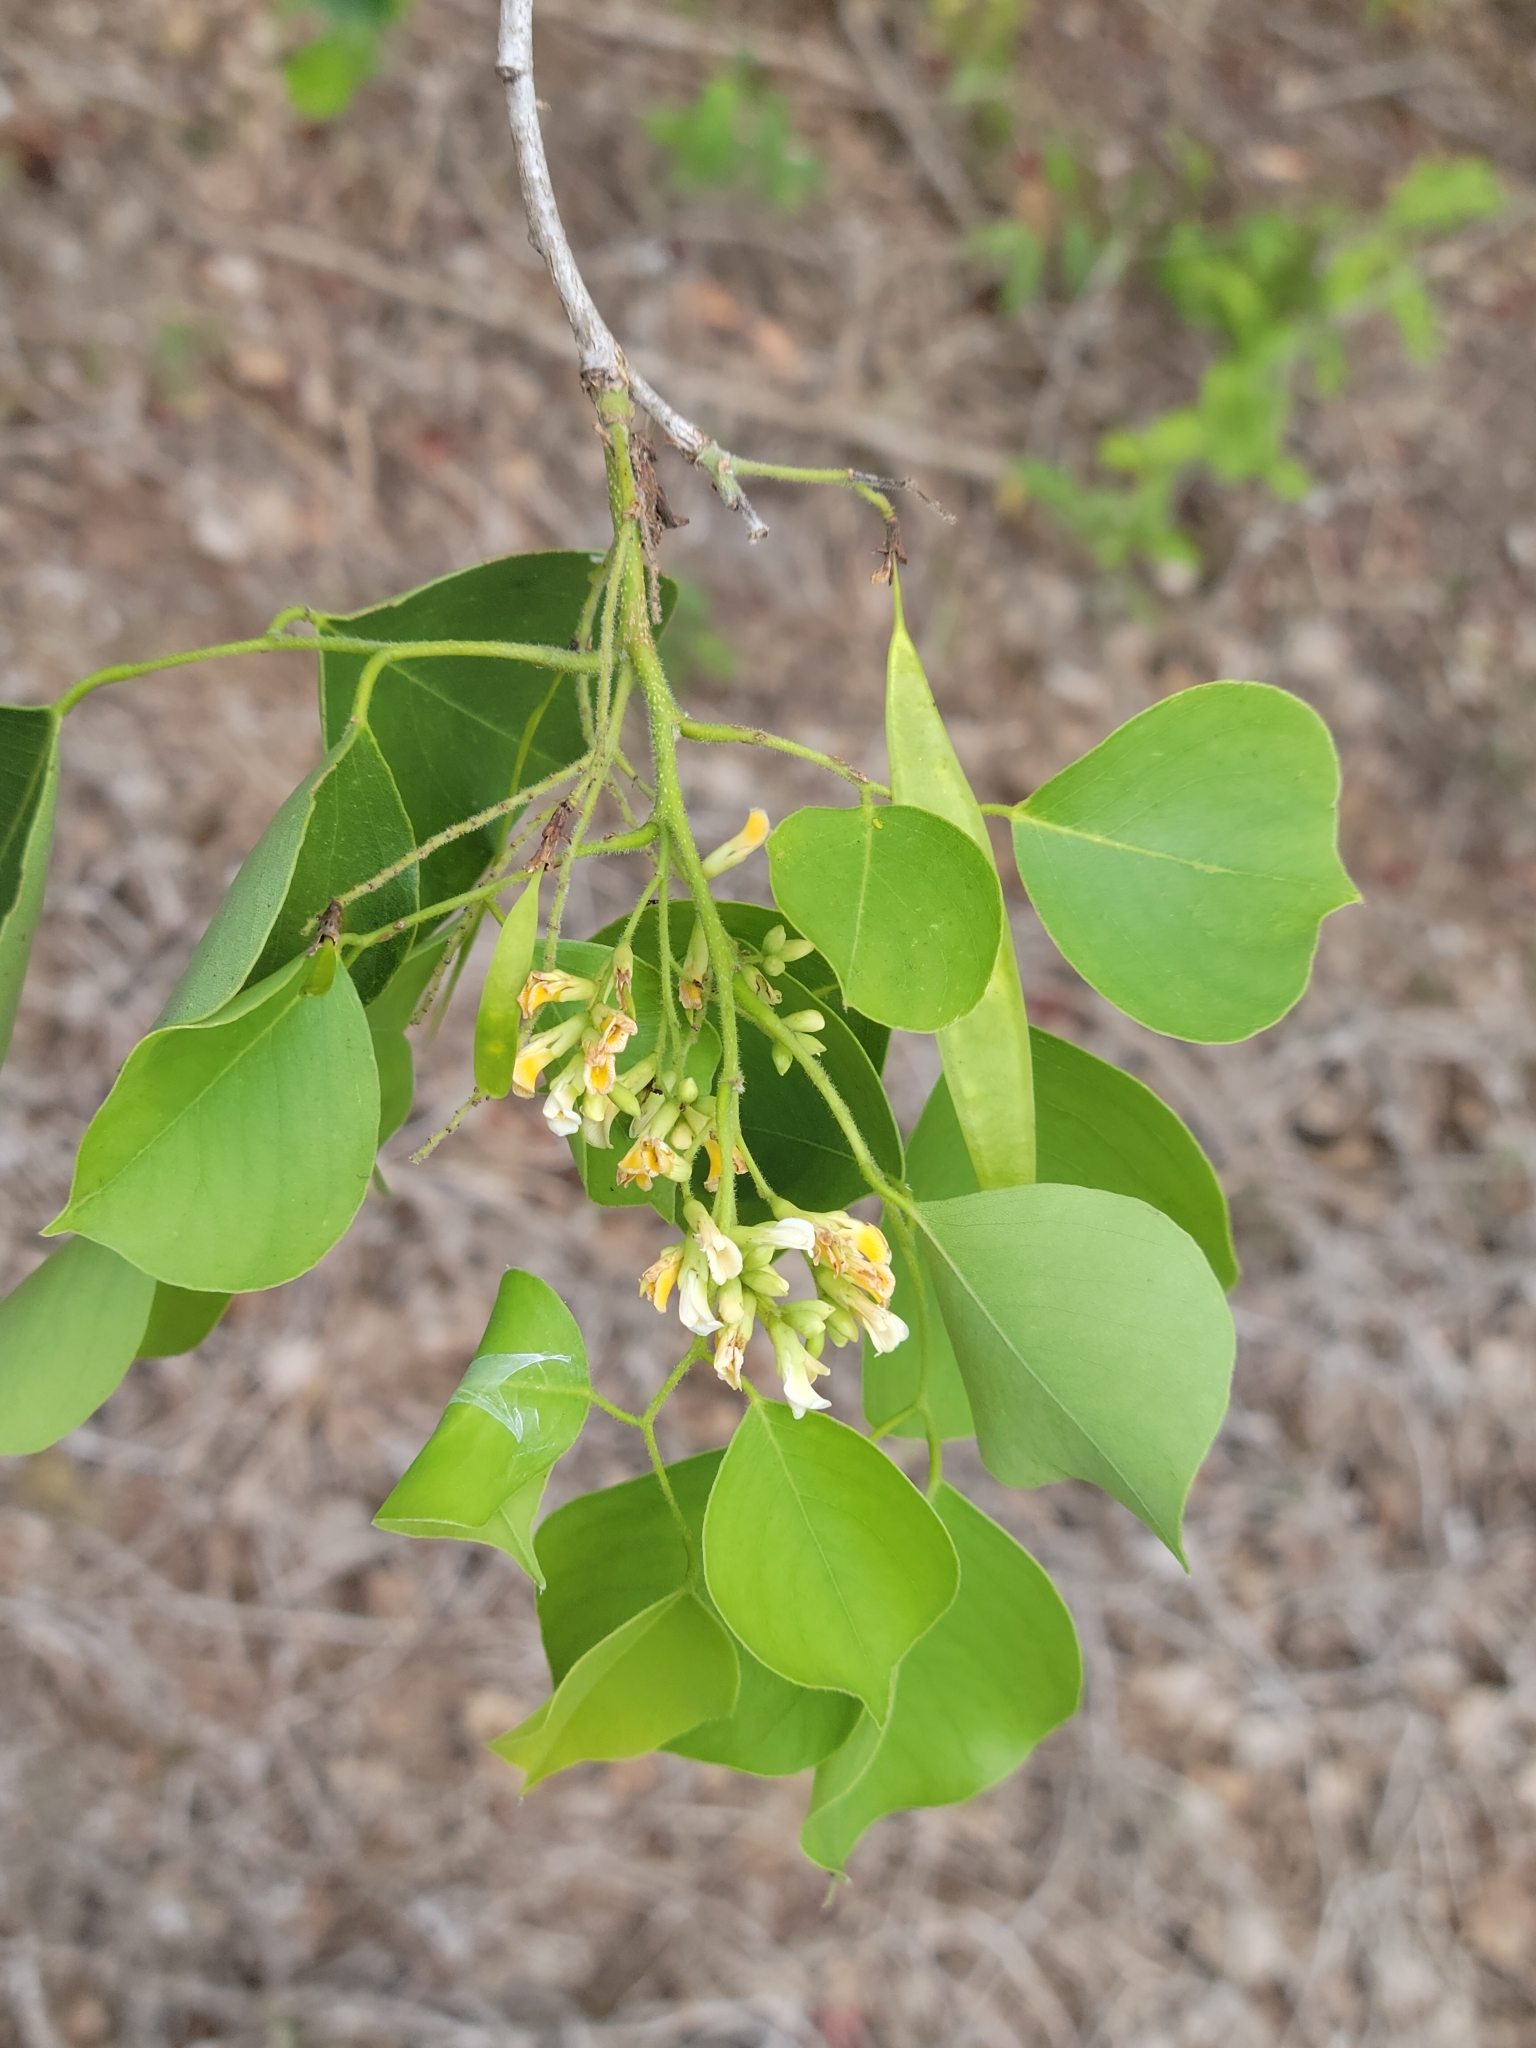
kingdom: Plantae
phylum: Tracheophyta
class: Magnoliopsida
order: Fabales
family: Fabaceae
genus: Dalbergia
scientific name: Dalbergia sissoo
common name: Indian rosewood
